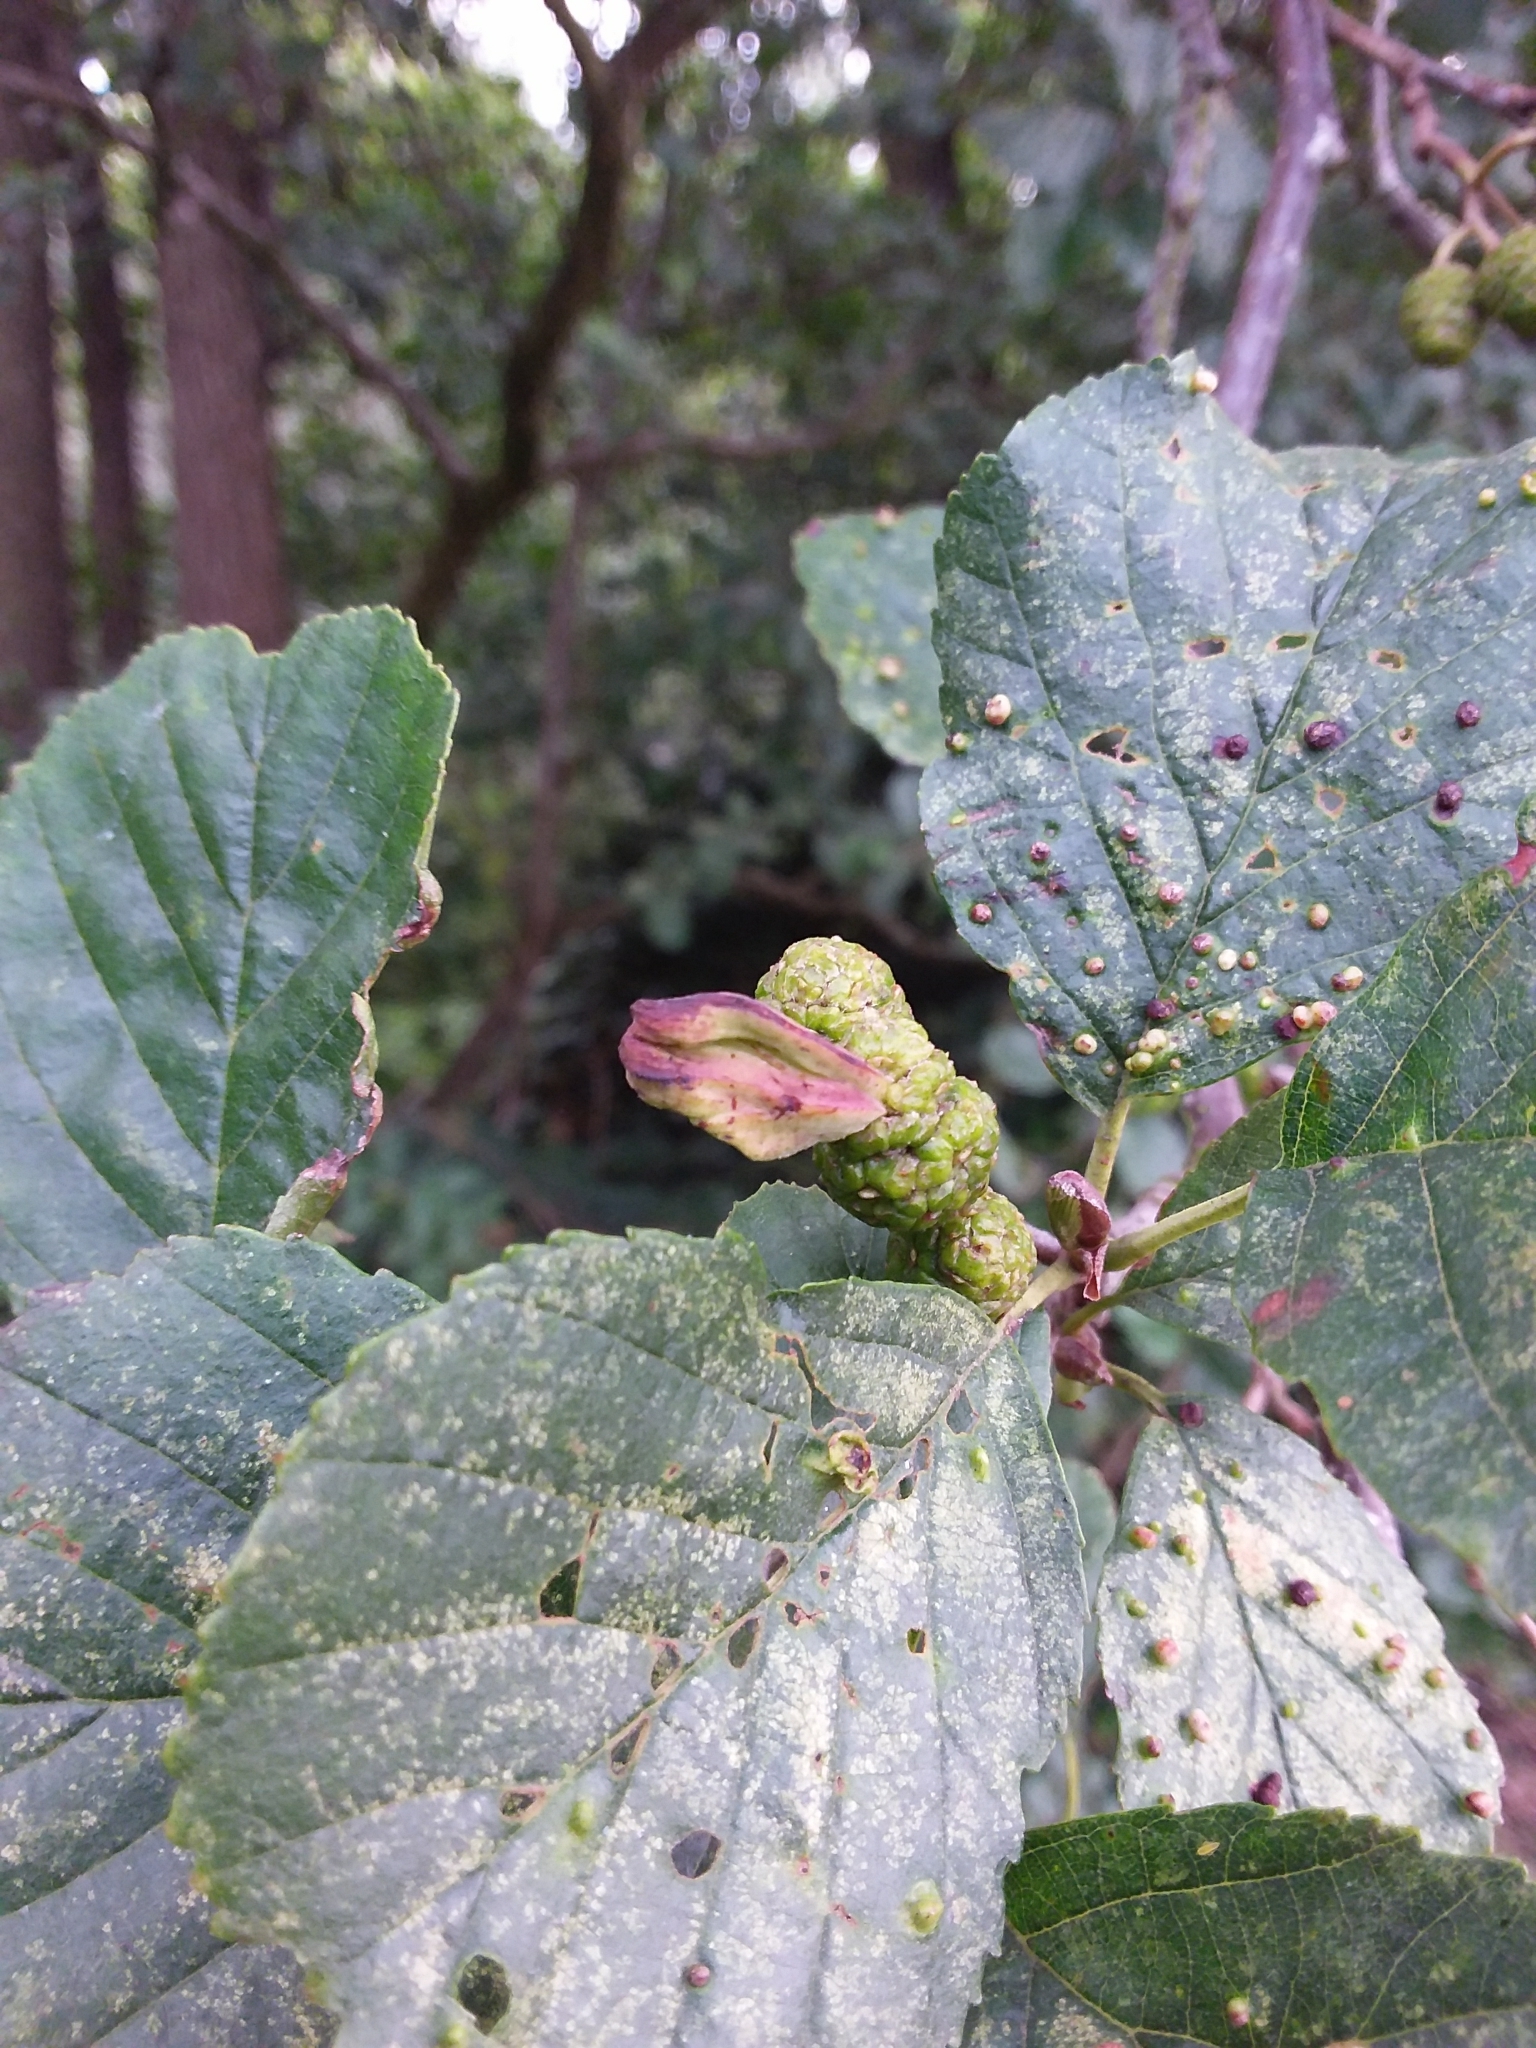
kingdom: Fungi
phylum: Ascomycota
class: Taphrinomycetes
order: Taphrinales
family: Taphrinaceae
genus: Taphrina
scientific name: Taphrina alni
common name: Alder tongue
